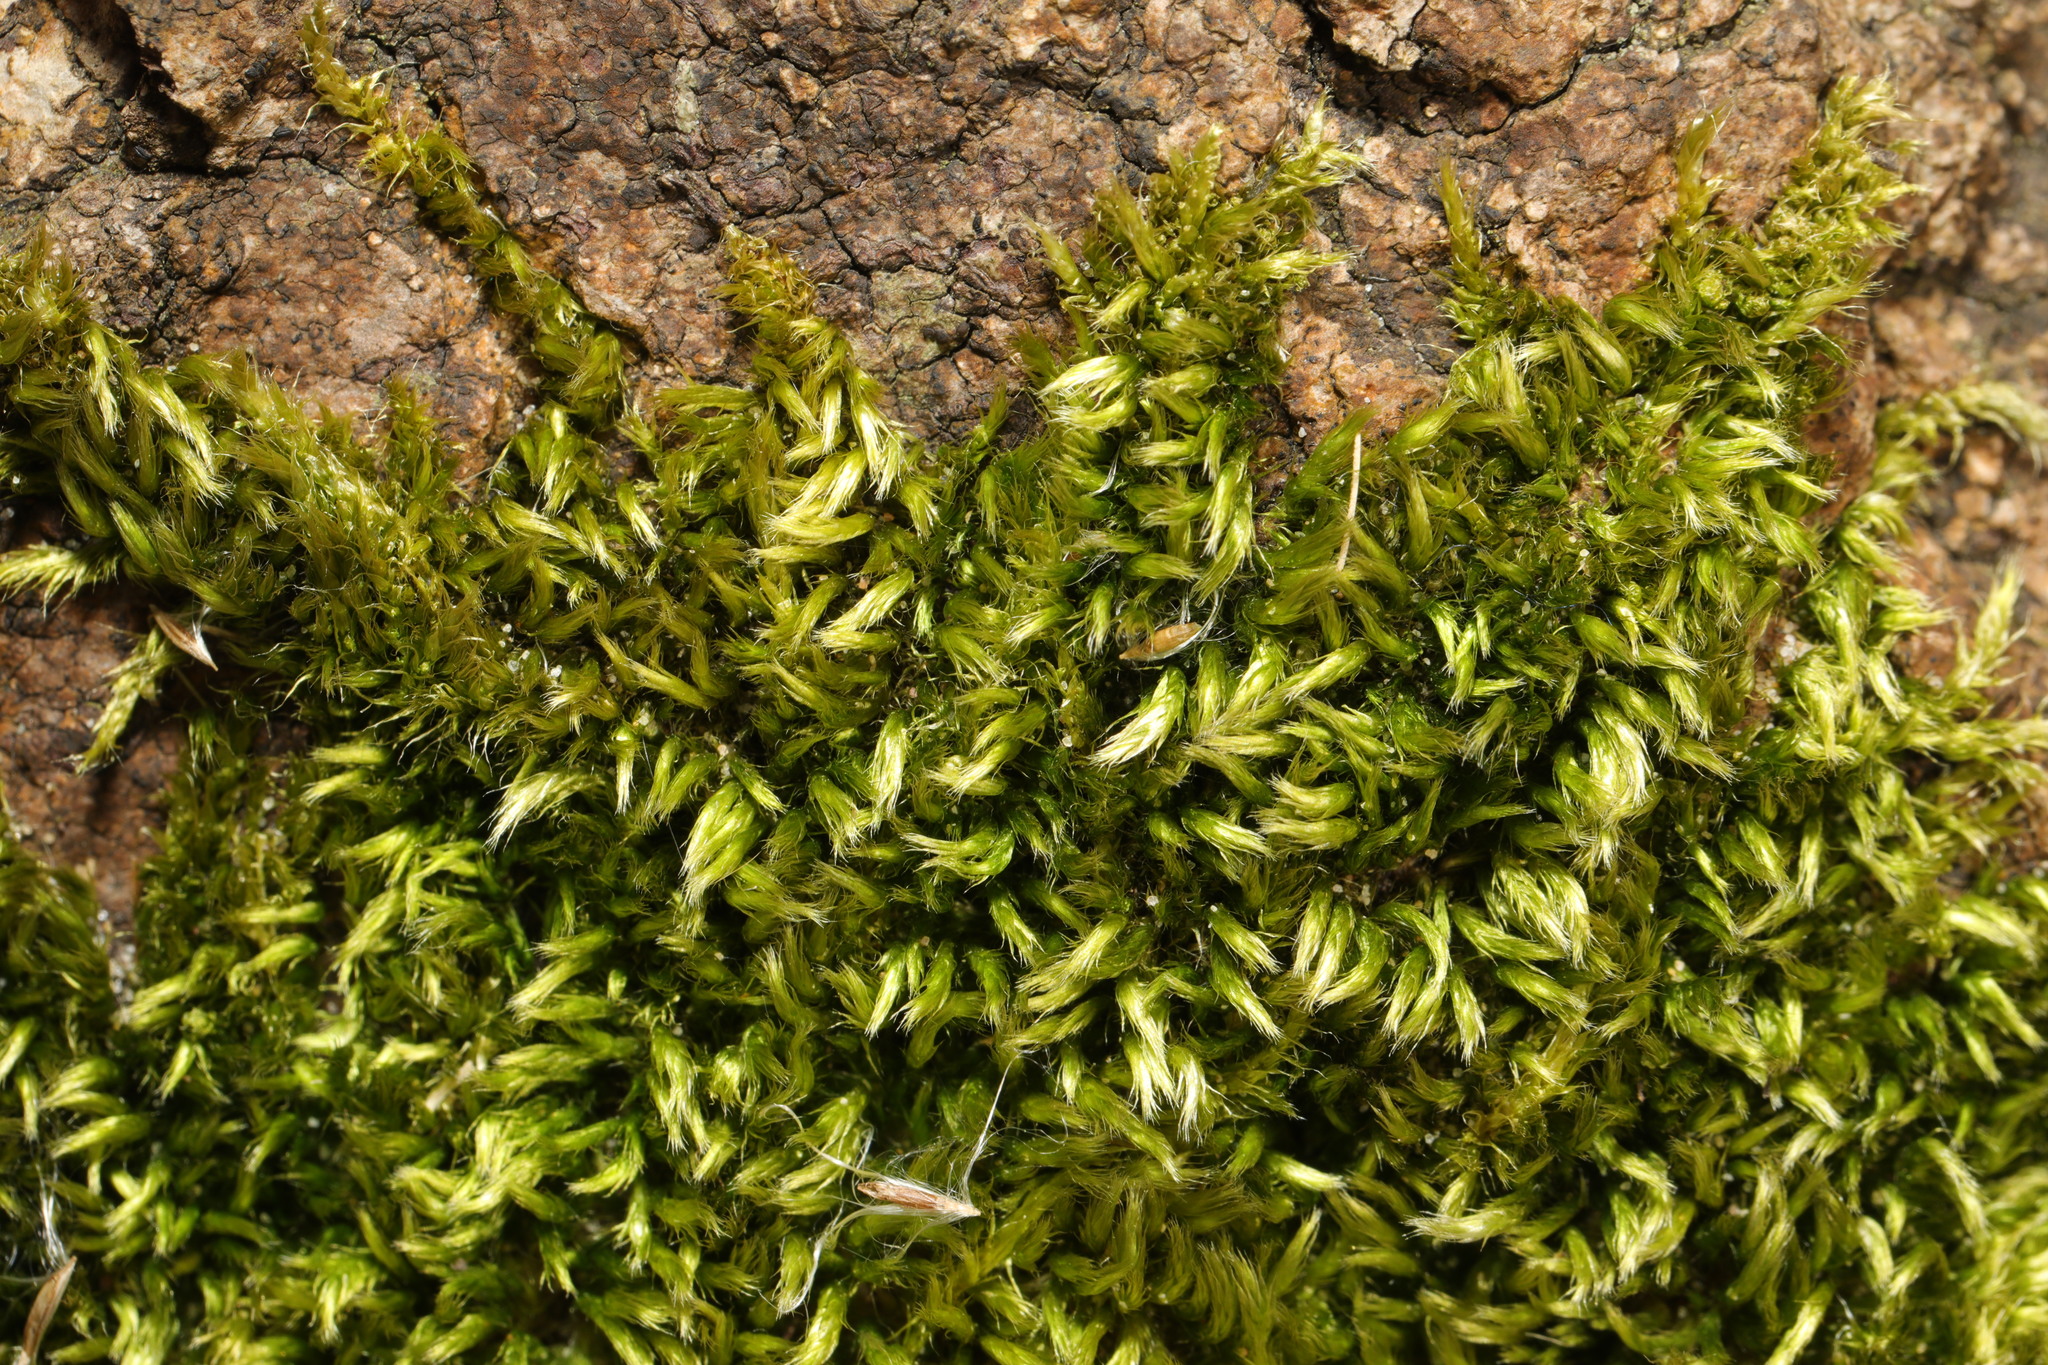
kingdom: Plantae
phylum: Bryophyta
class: Bryopsida
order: Hypnales
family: Brachytheciaceae
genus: Homalothecium
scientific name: Homalothecium sericeum
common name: Silky wall feather-moss
